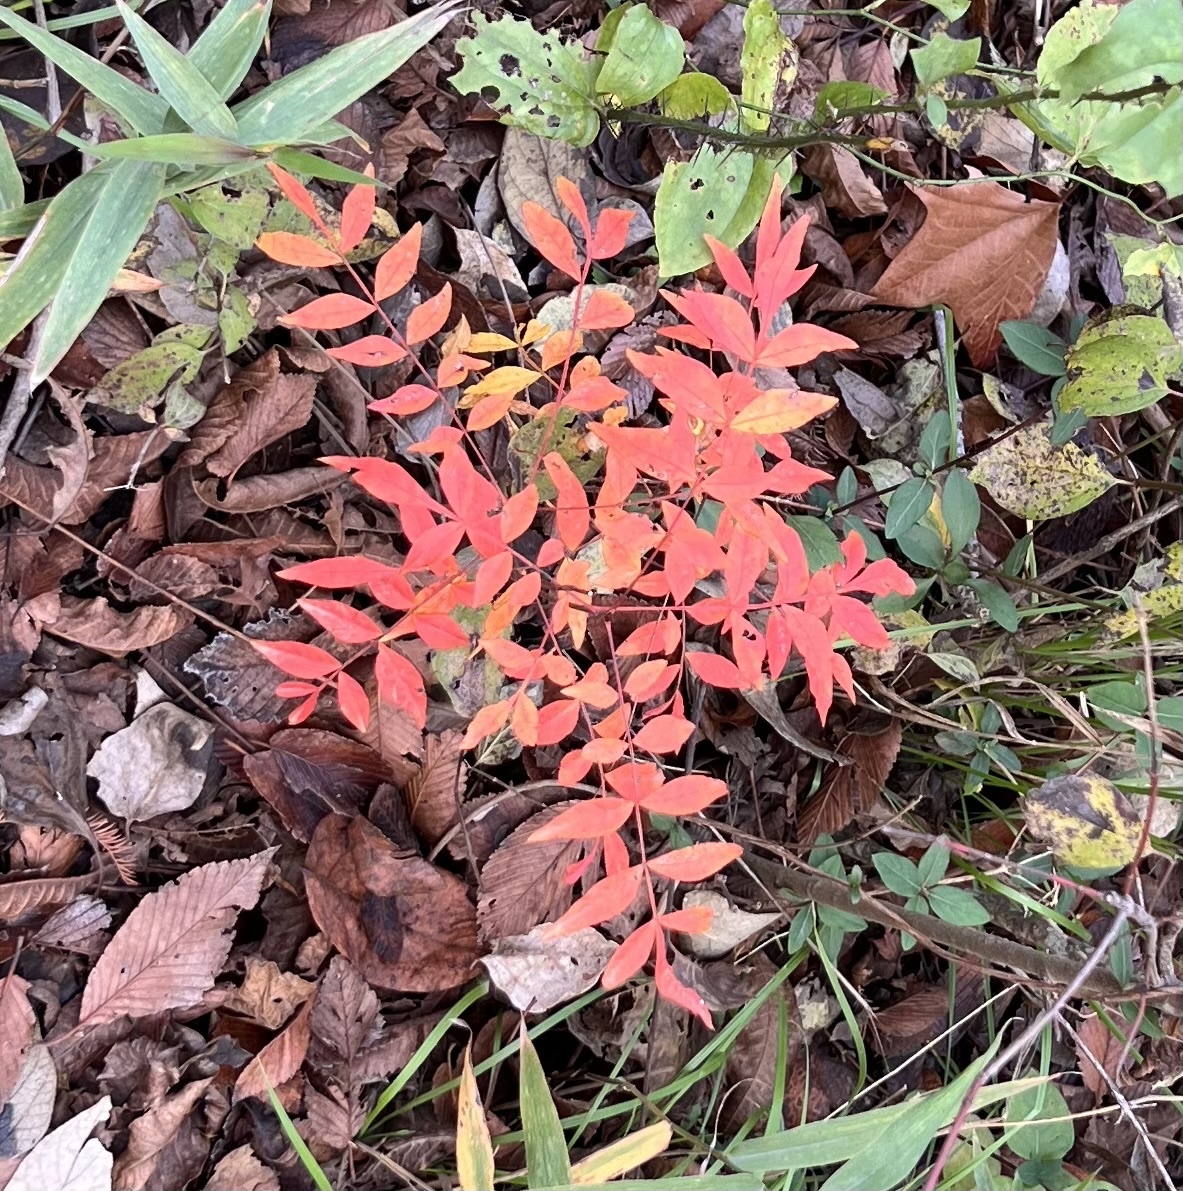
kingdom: Plantae
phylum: Tracheophyta
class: Magnoliopsida
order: Sapindales
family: Anacardiaceae
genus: Pistacia
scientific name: Pistacia chinensis
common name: Chinese pistache
